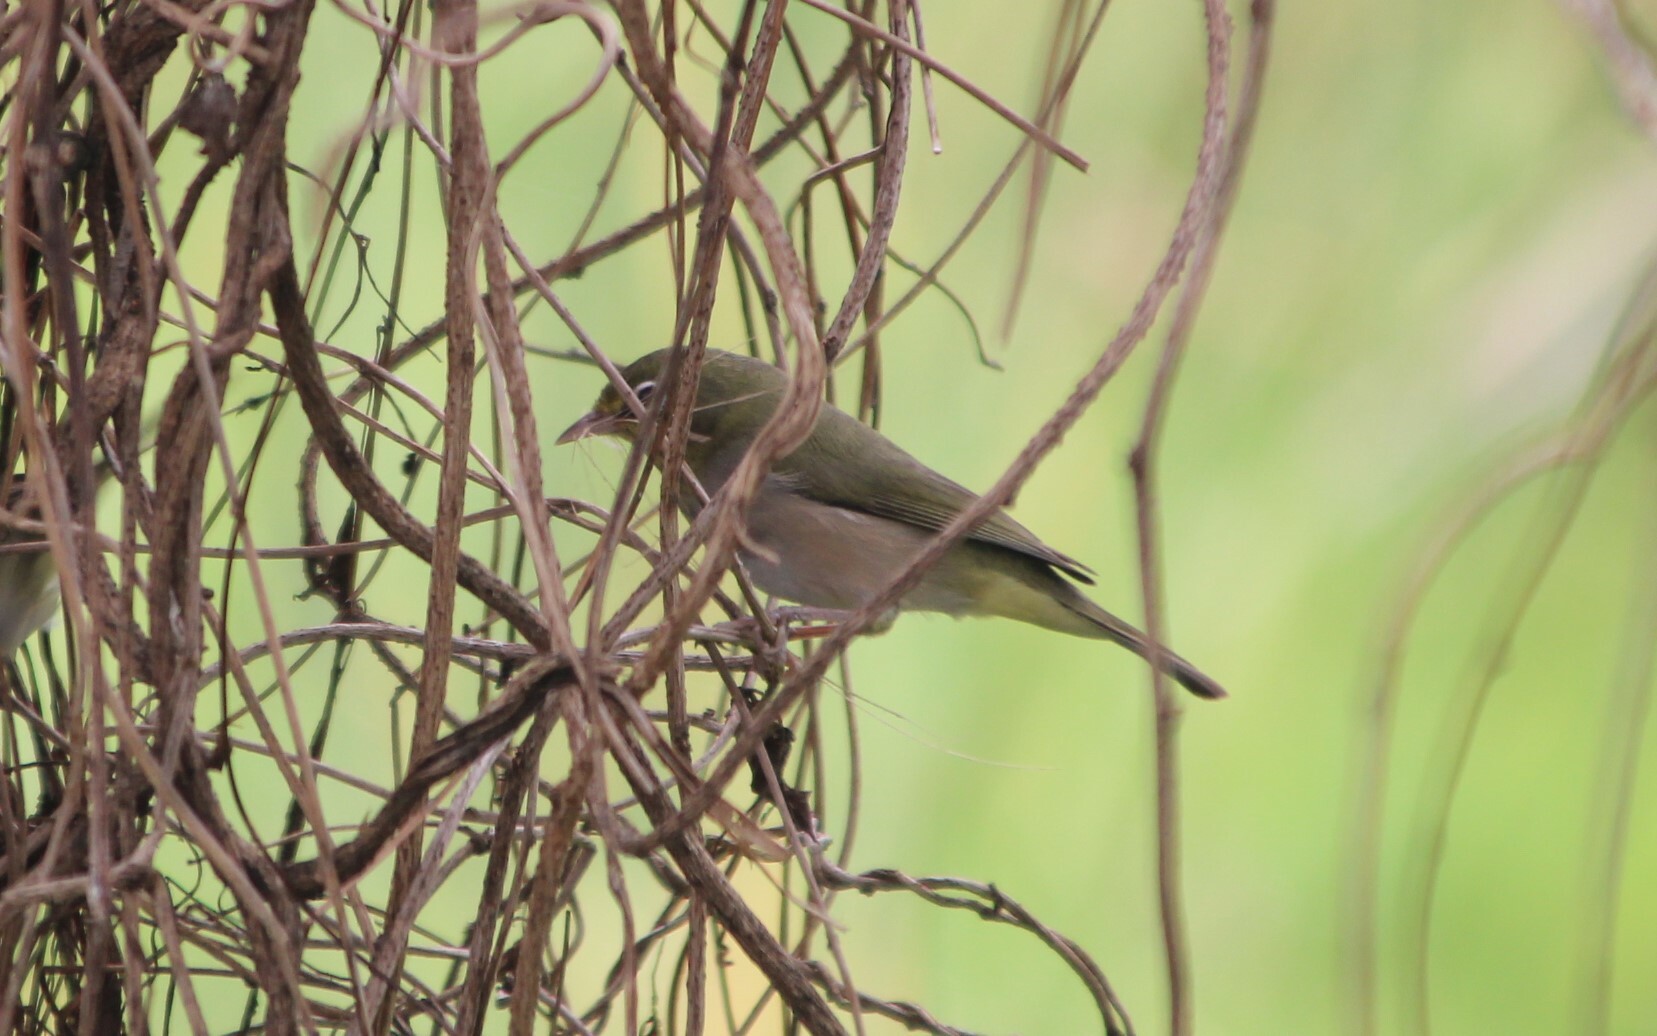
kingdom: Animalia
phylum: Chordata
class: Aves
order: Passeriformes
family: Zosteropidae
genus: Zosterops
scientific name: Zosterops abyssinicus
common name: Abyssinian white-eye
